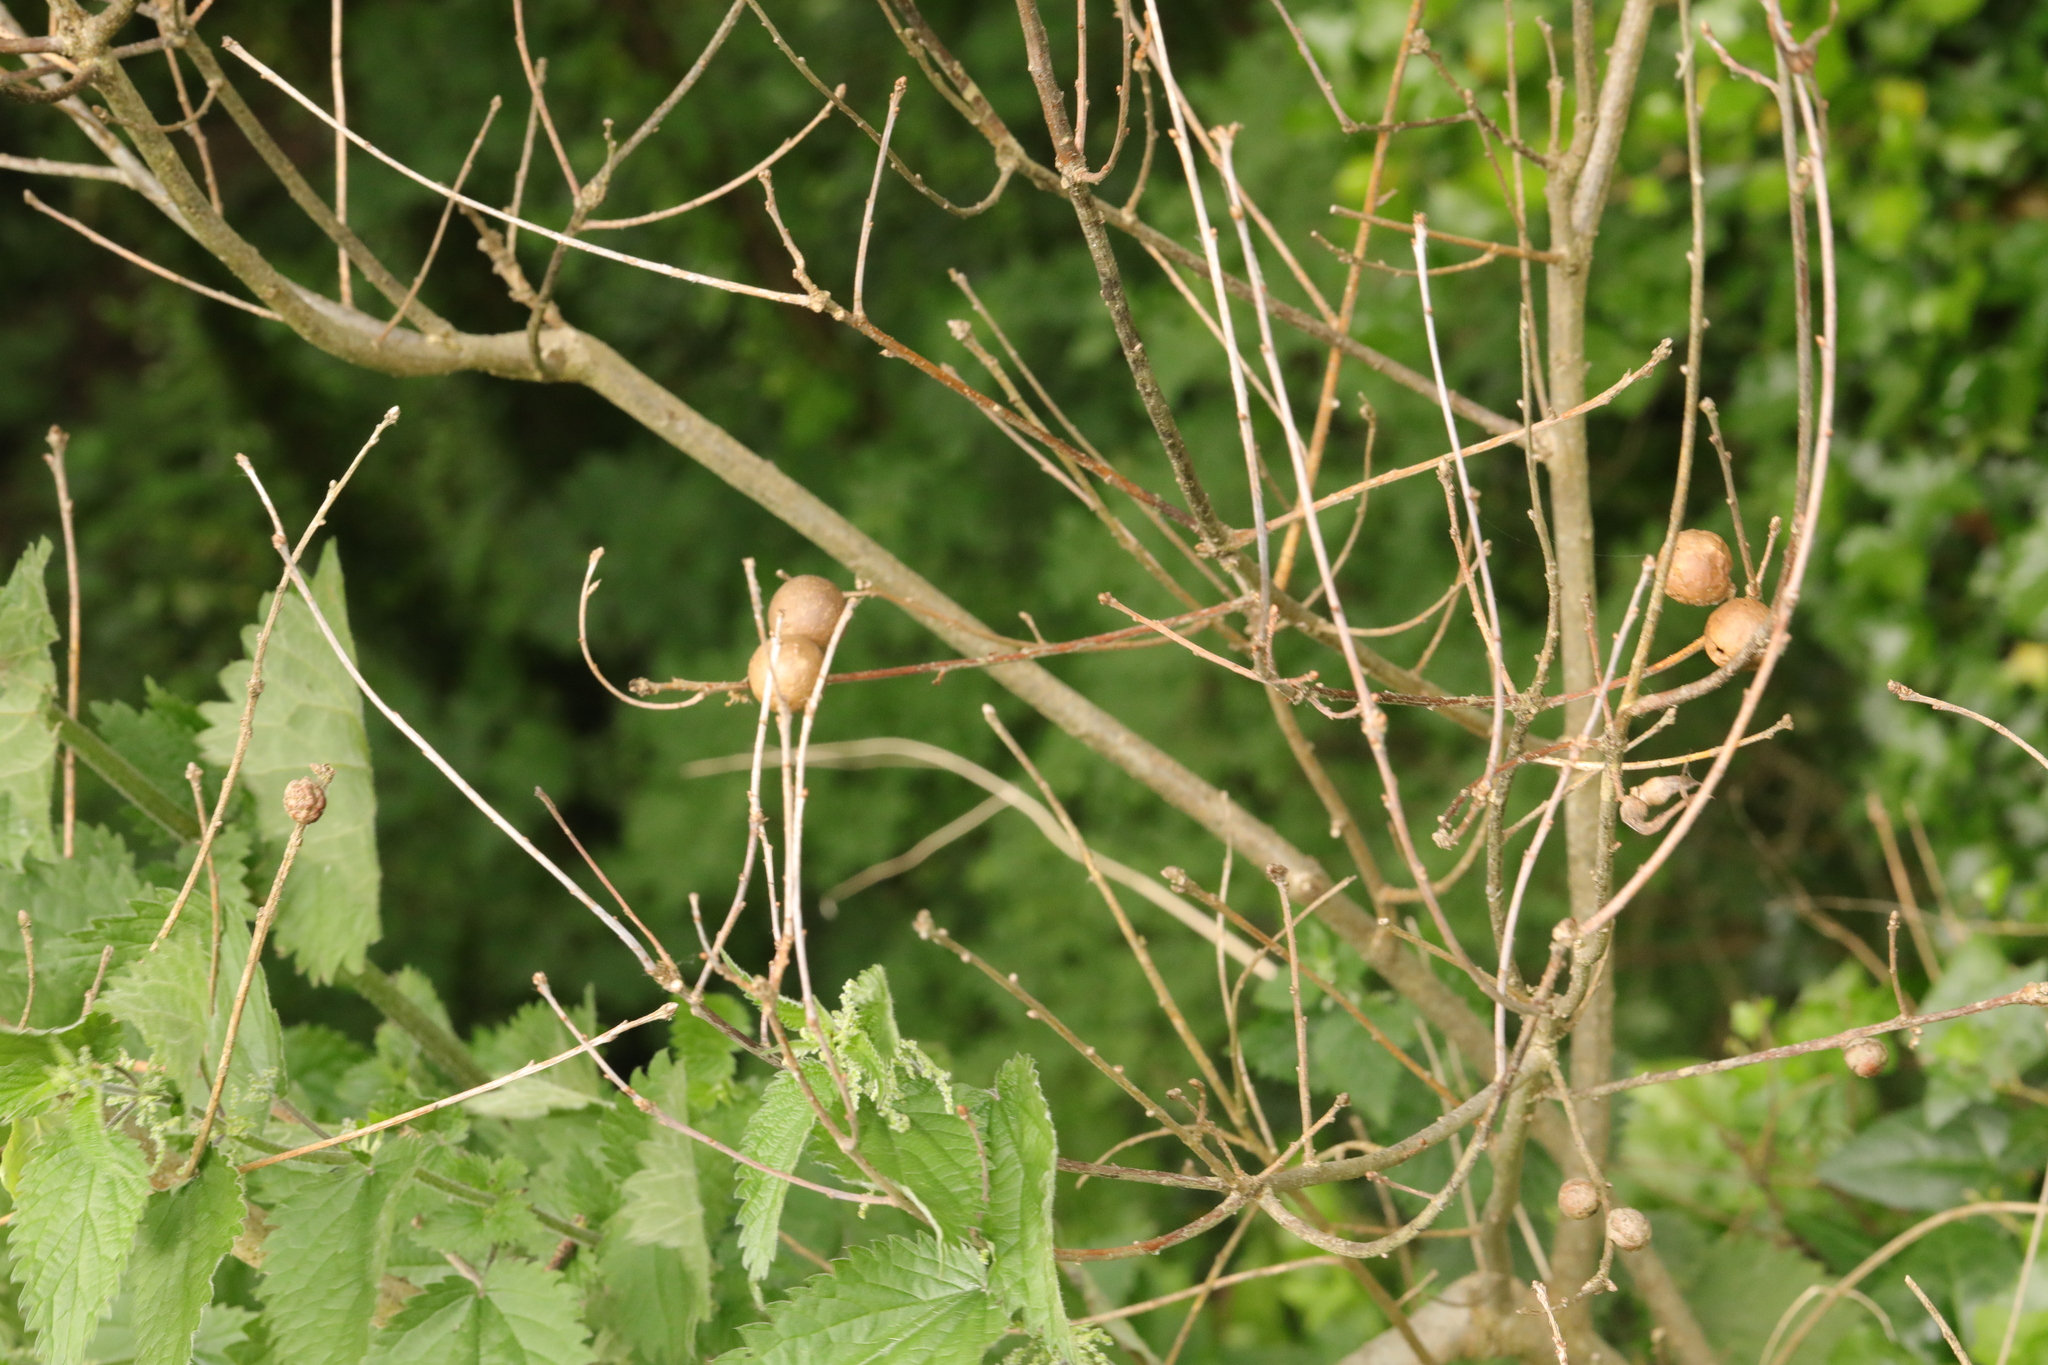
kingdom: Animalia
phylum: Arthropoda
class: Insecta
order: Hymenoptera
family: Cynipidae
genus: Andricus
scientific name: Andricus kollari
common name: Marble gall
